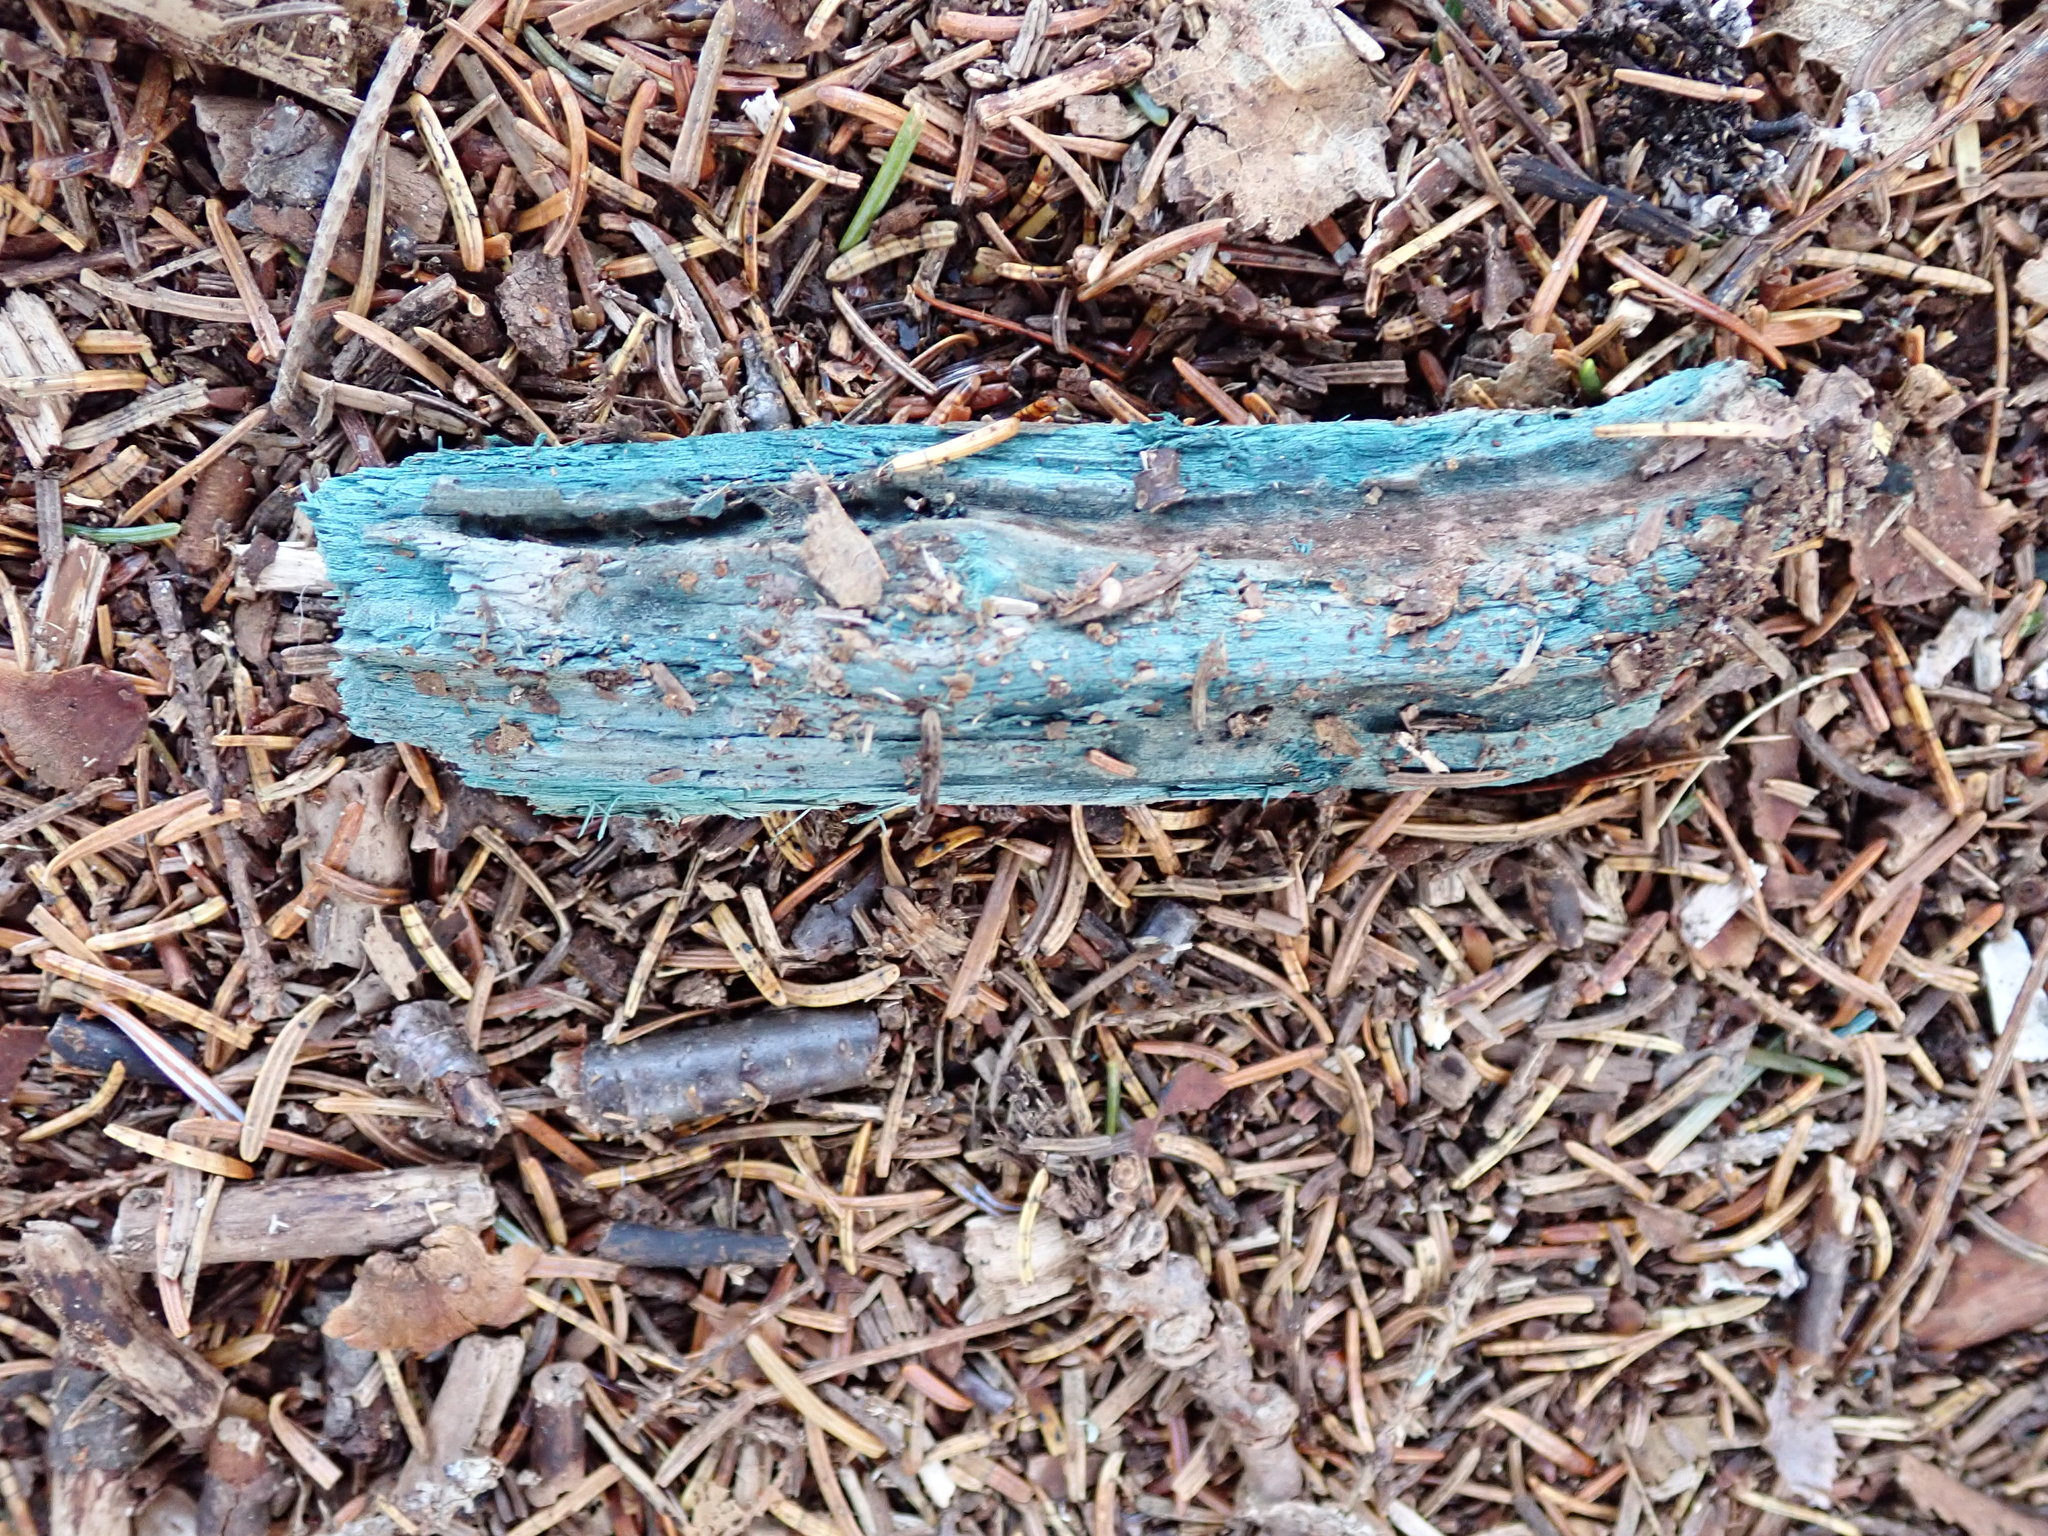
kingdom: Fungi
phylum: Ascomycota
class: Leotiomycetes
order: Helotiales
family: Chlorociboriaceae
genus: Chlorociboria
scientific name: Chlorociboria
